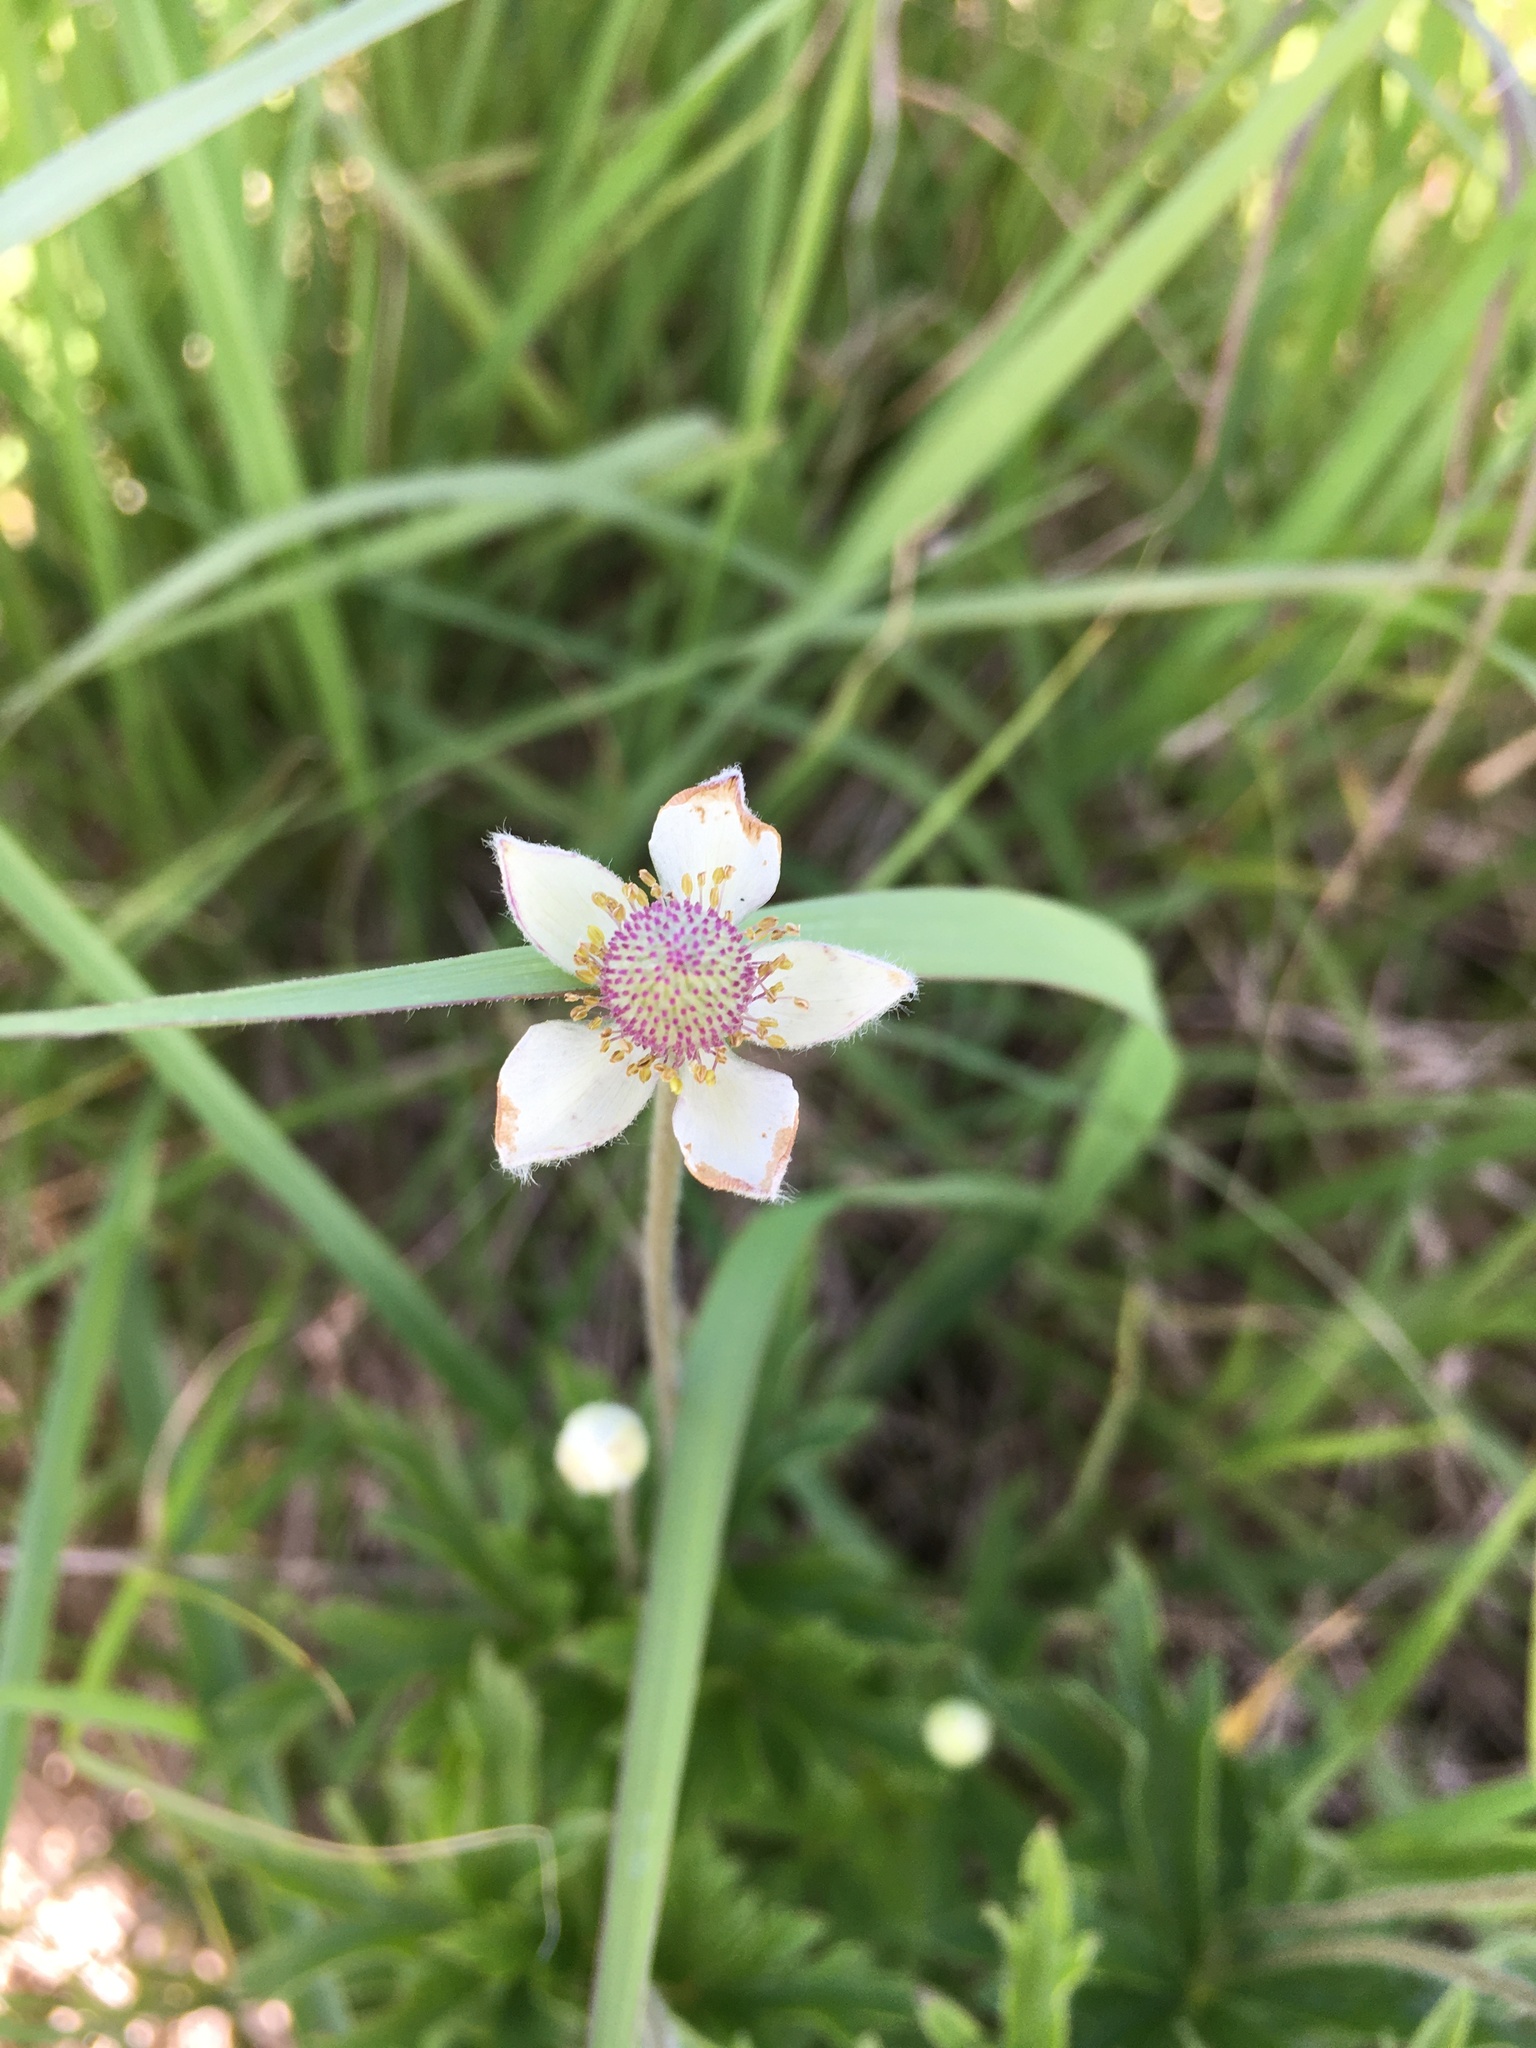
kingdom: Plantae
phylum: Tracheophyta
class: Magnoliopsida
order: Ranunculales
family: Ranunculaceae
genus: Anemone
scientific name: Anemone cylindrica
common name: Candle anemone
